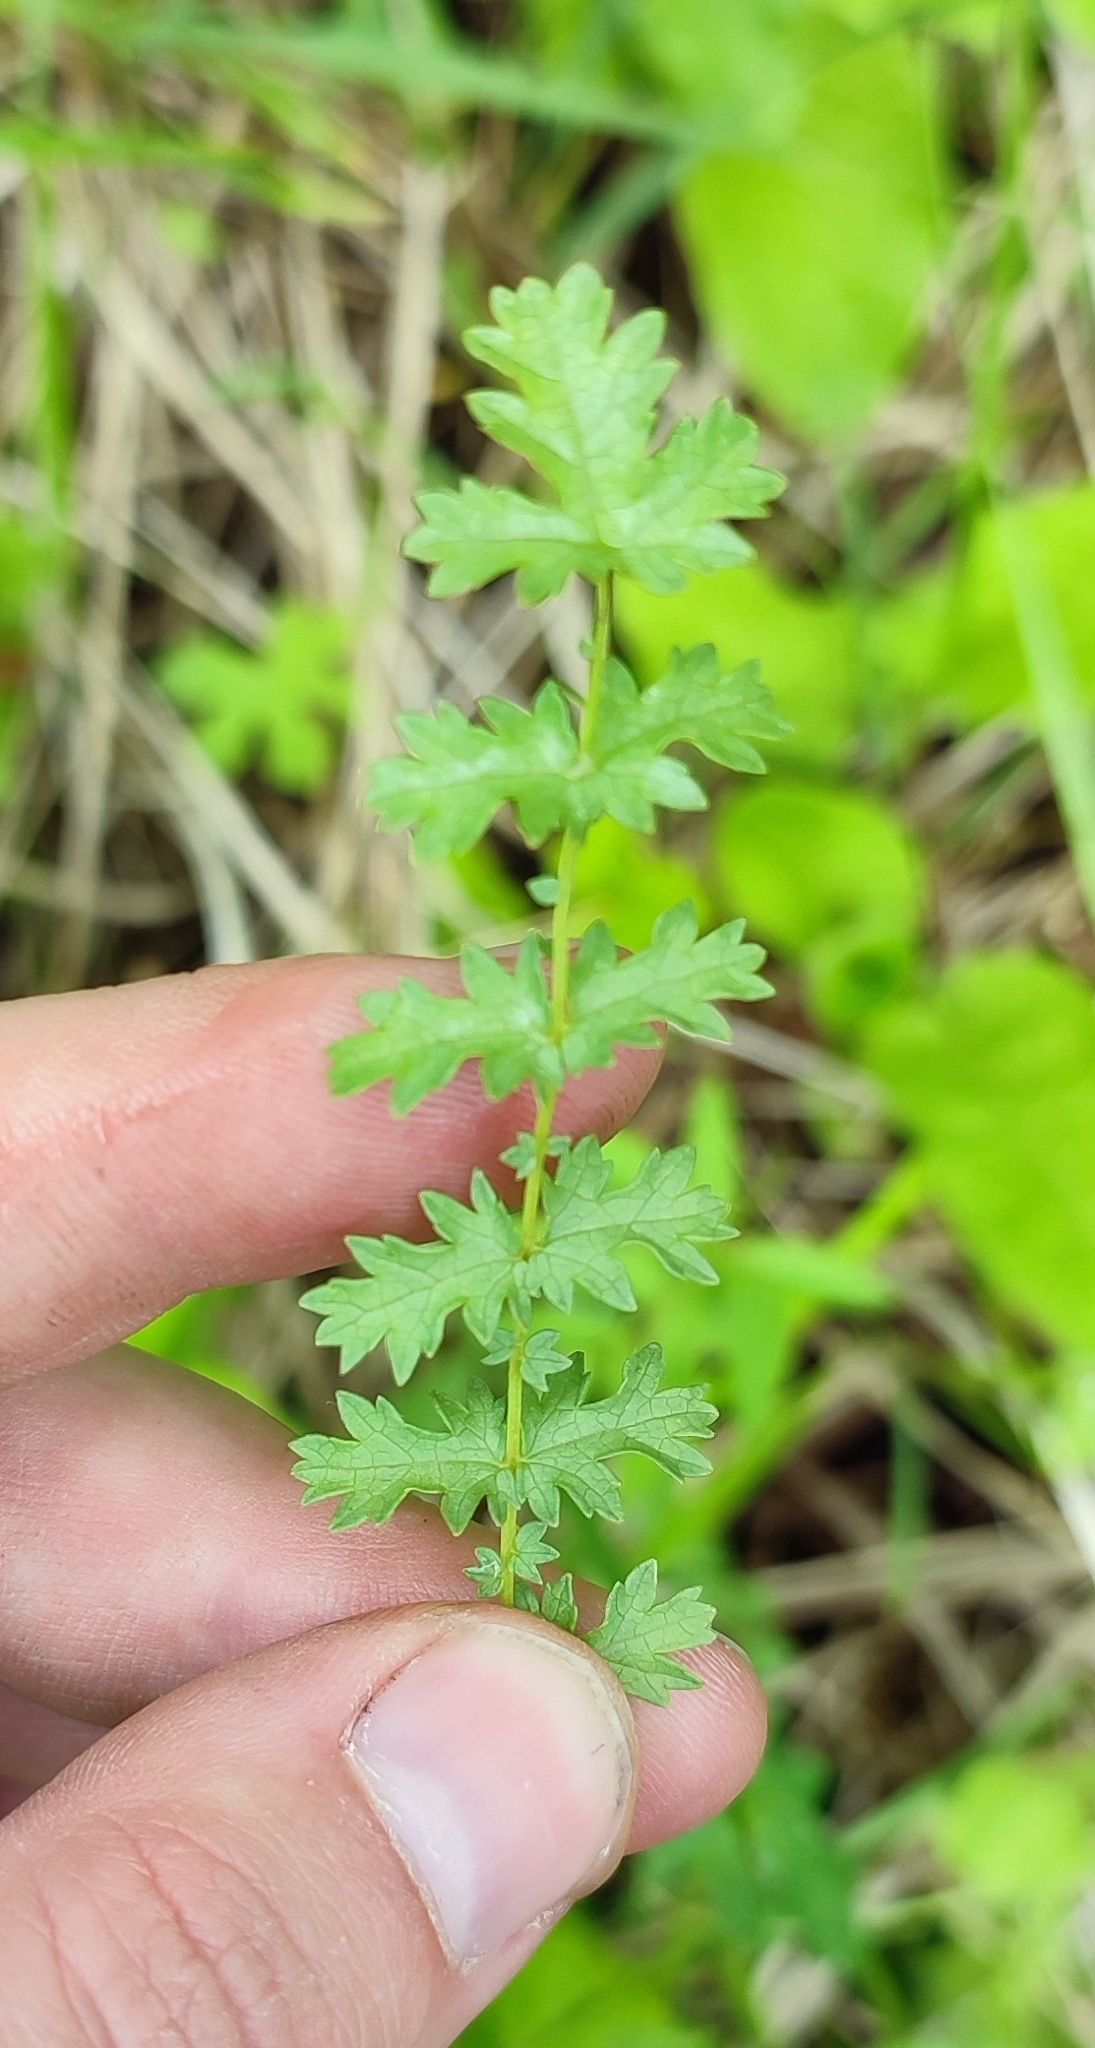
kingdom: Plantae
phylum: Tracheophyta
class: Magnoliopsida
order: Rosales
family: Rosaceae
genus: Filipendula
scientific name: Filipendula vulgaris
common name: Dropwort
